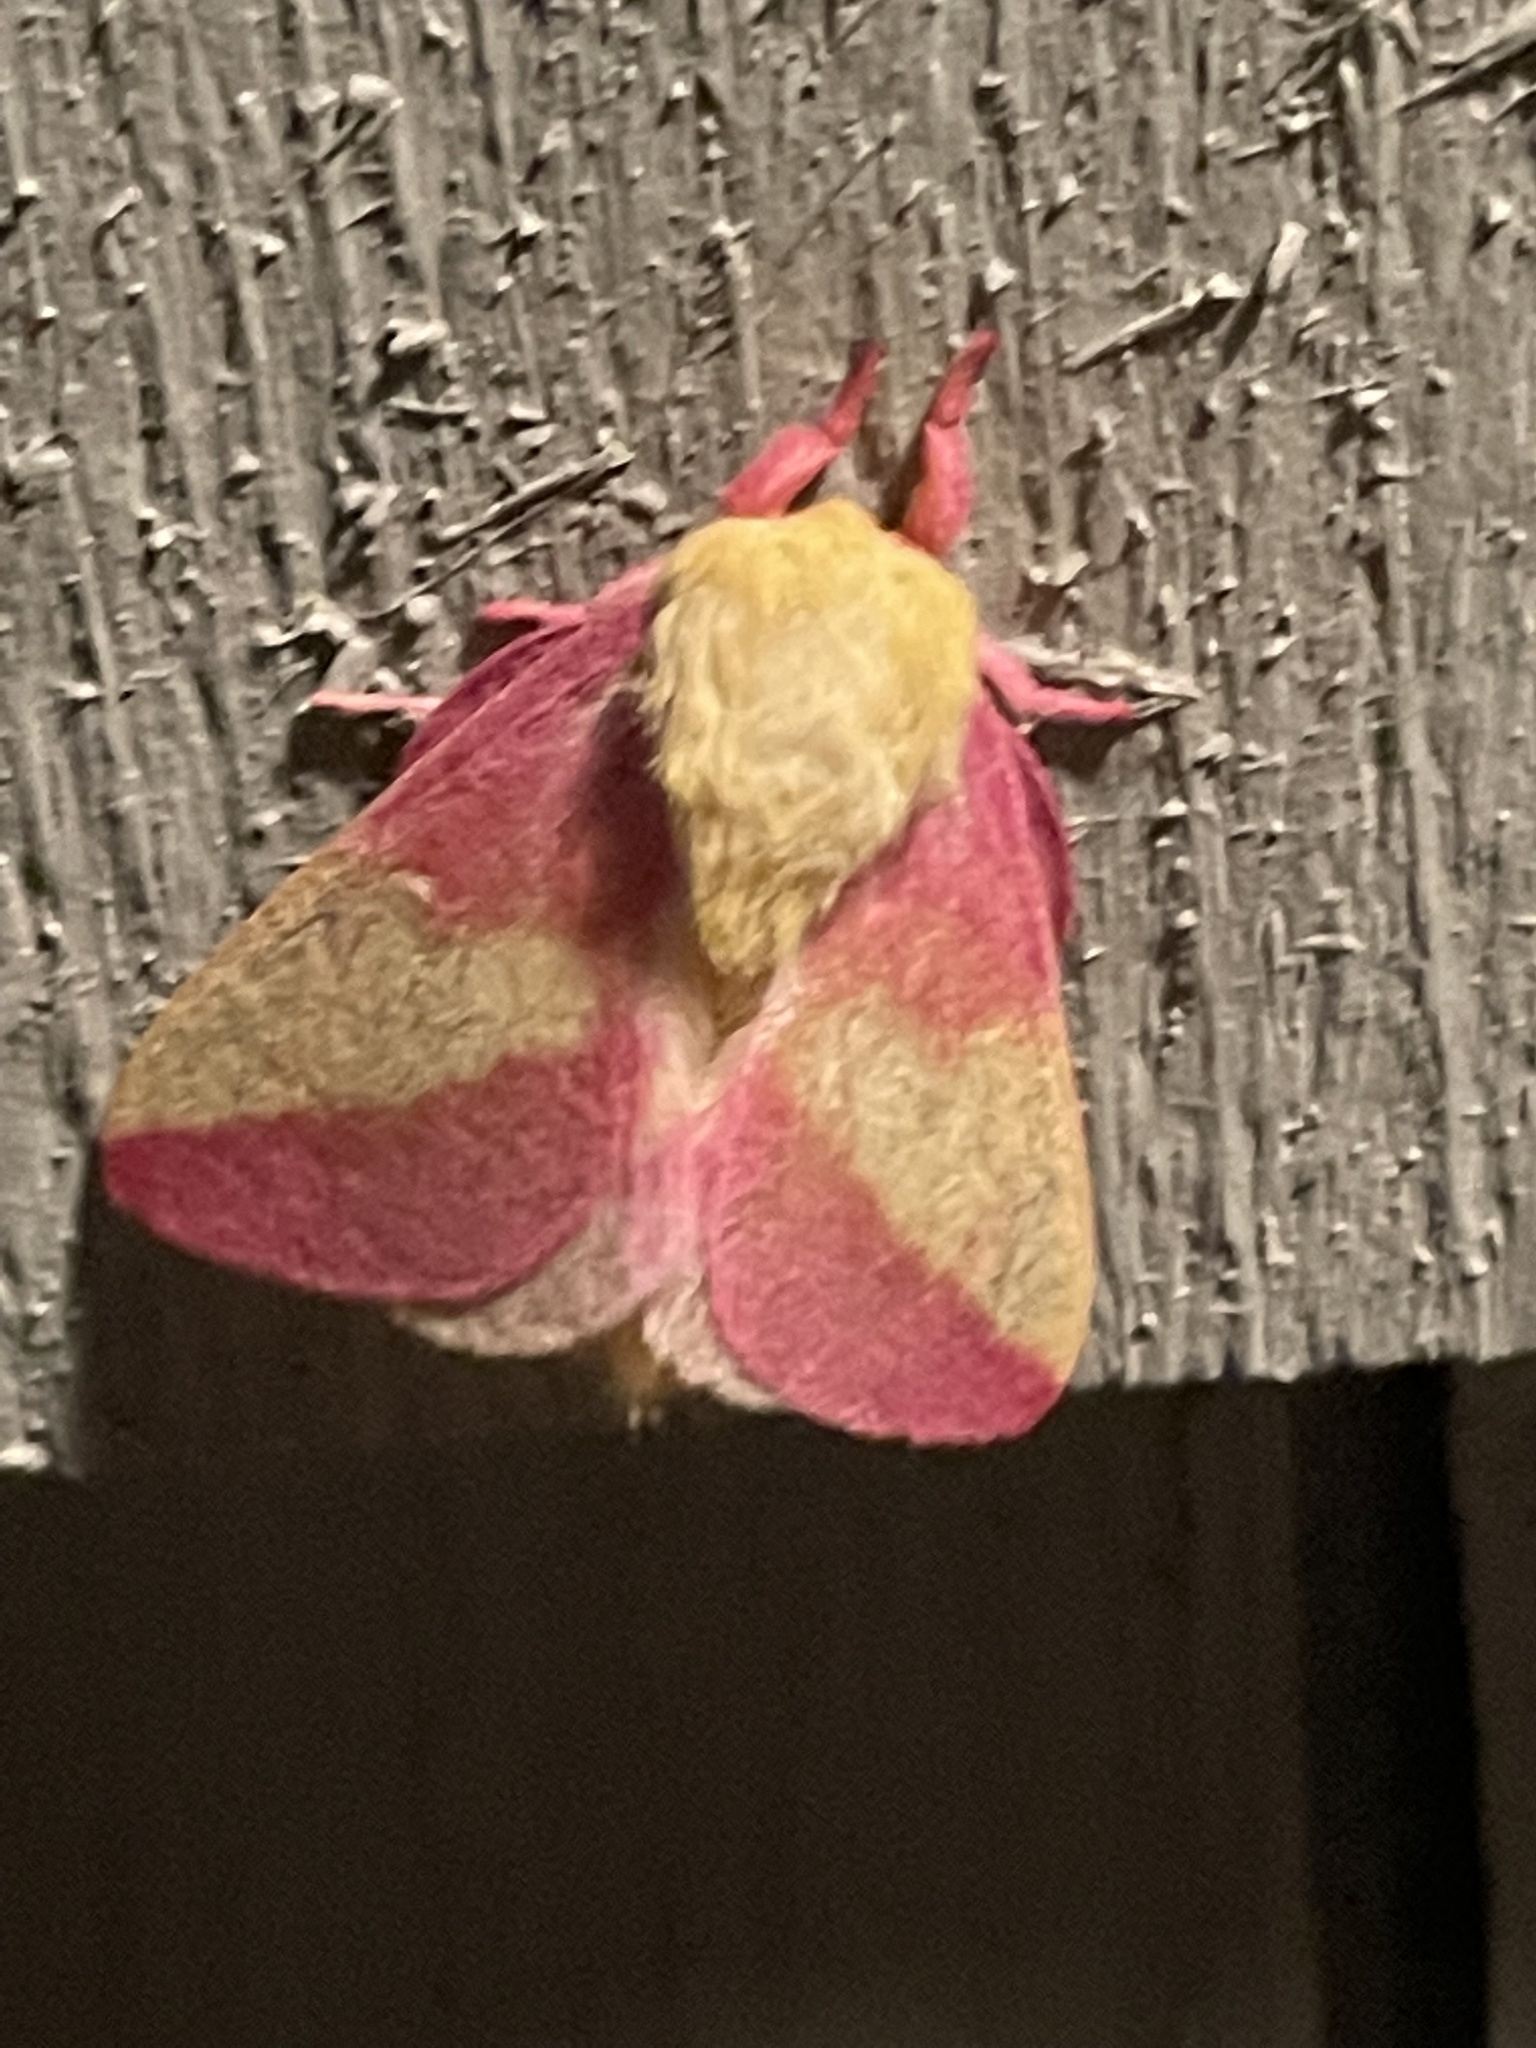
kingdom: Animalia
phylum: Arthropoda
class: Insecta
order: Lepidoptera
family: Saturniidae
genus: Dryocampa
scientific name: Dryocampa rubicunda
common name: Rosy maple moth
